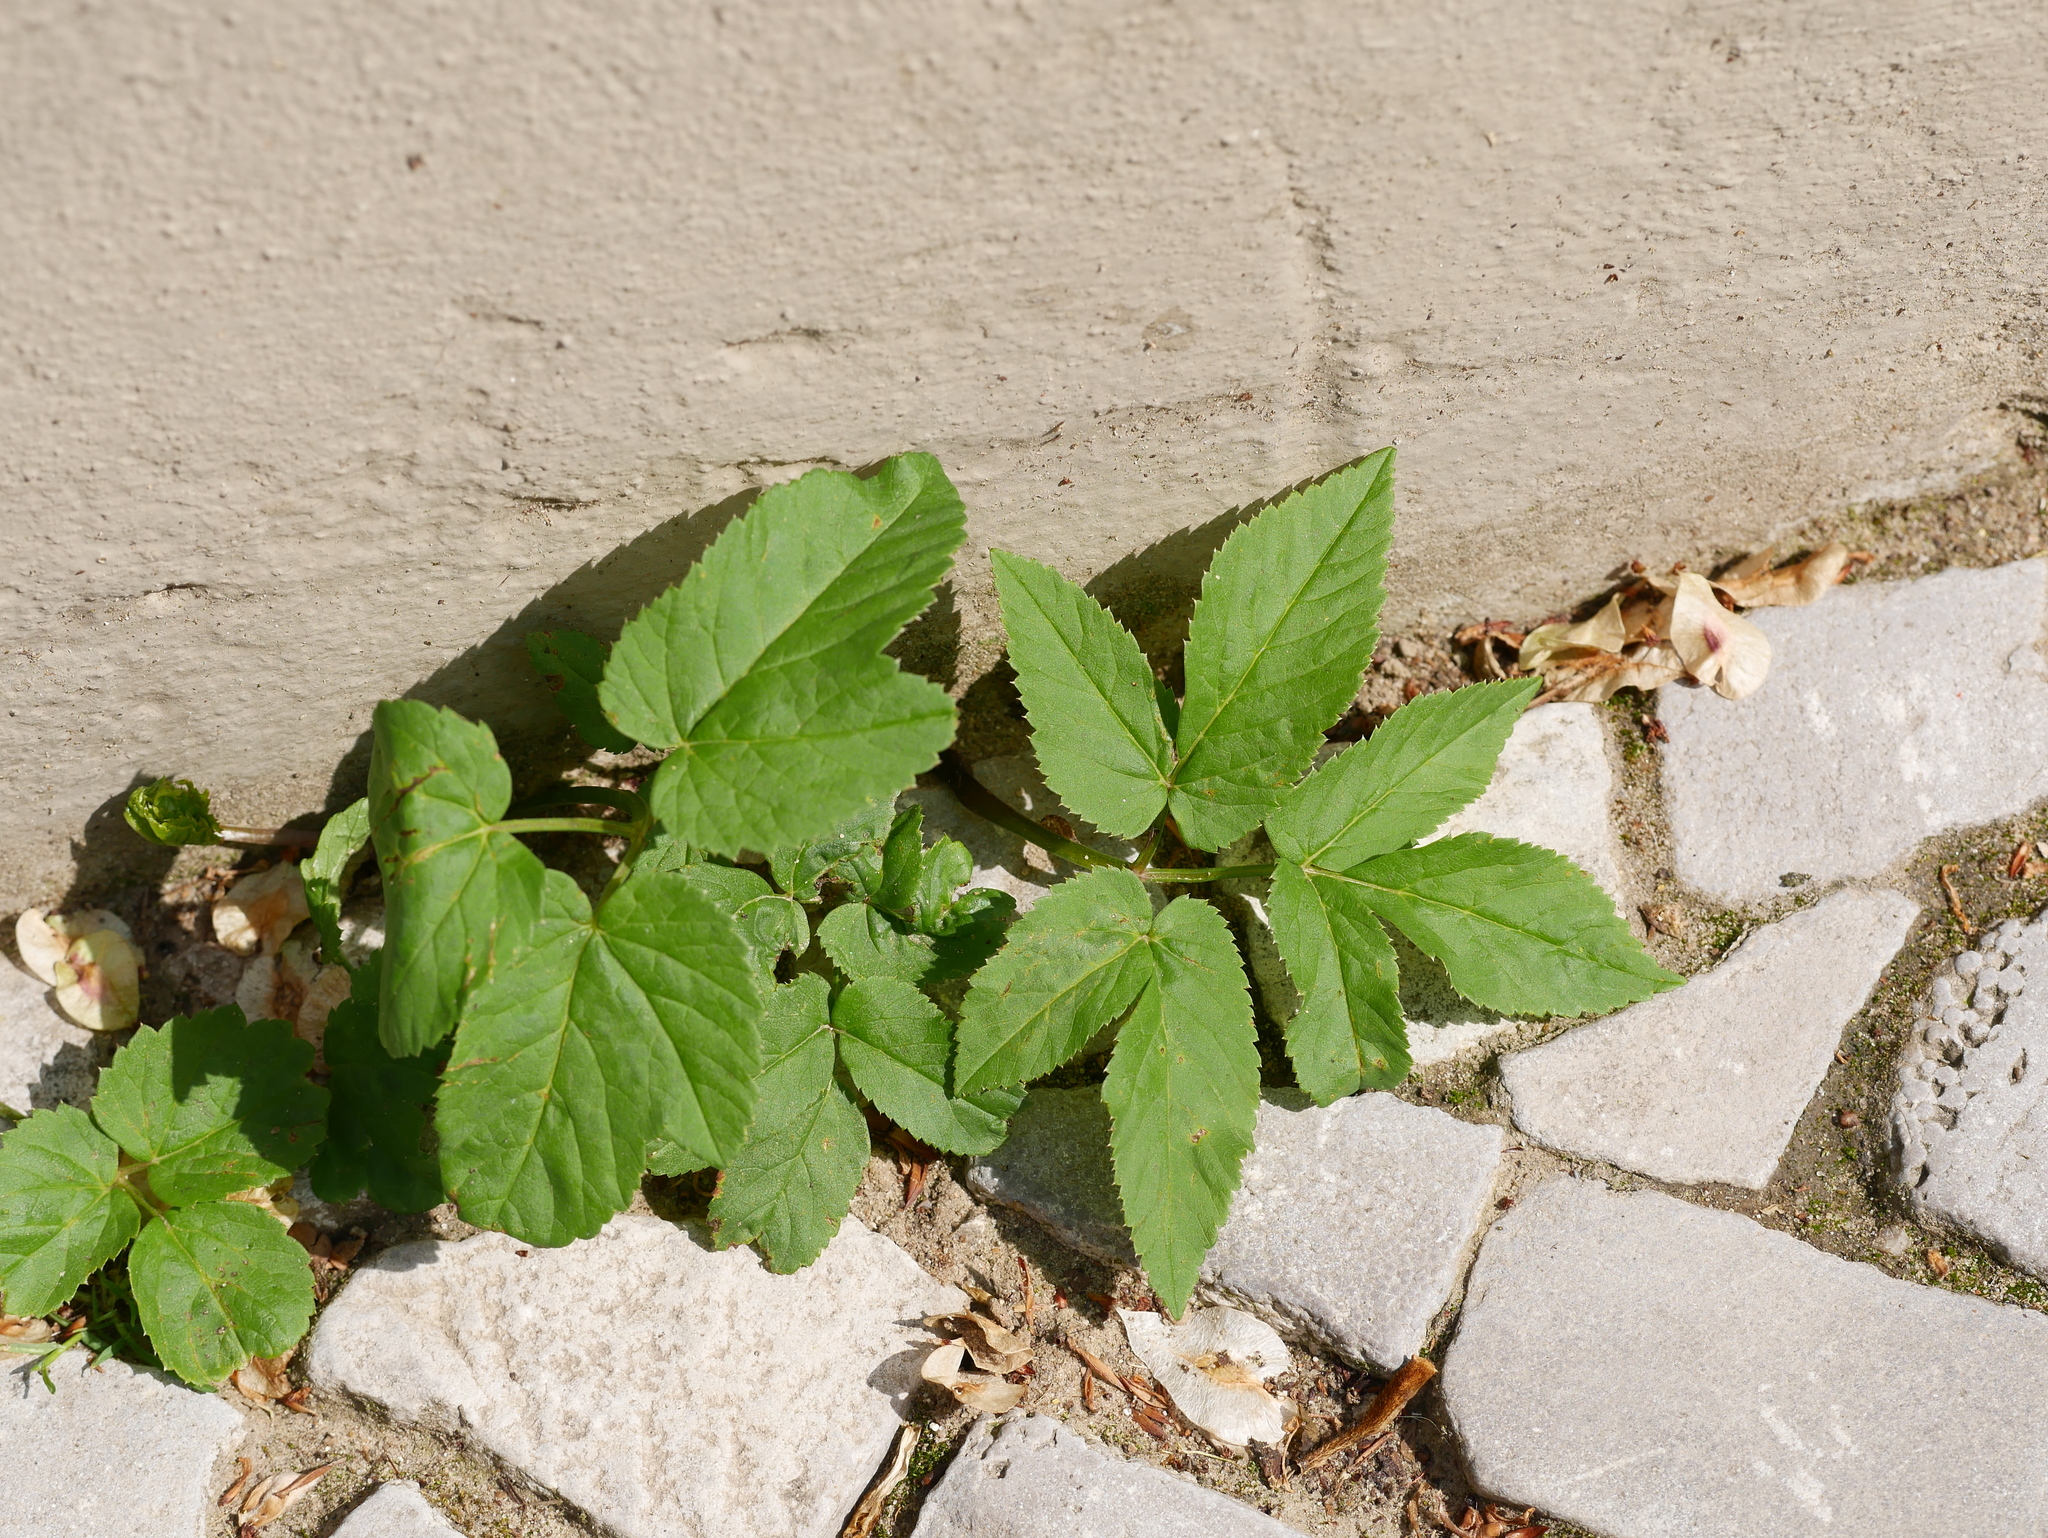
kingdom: Plantae
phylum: Tracheophyta
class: Magnoliopsida
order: Apiales
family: Apiaceae
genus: Aegopodium
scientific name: Aegopodium podagraria
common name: Ground-elder
